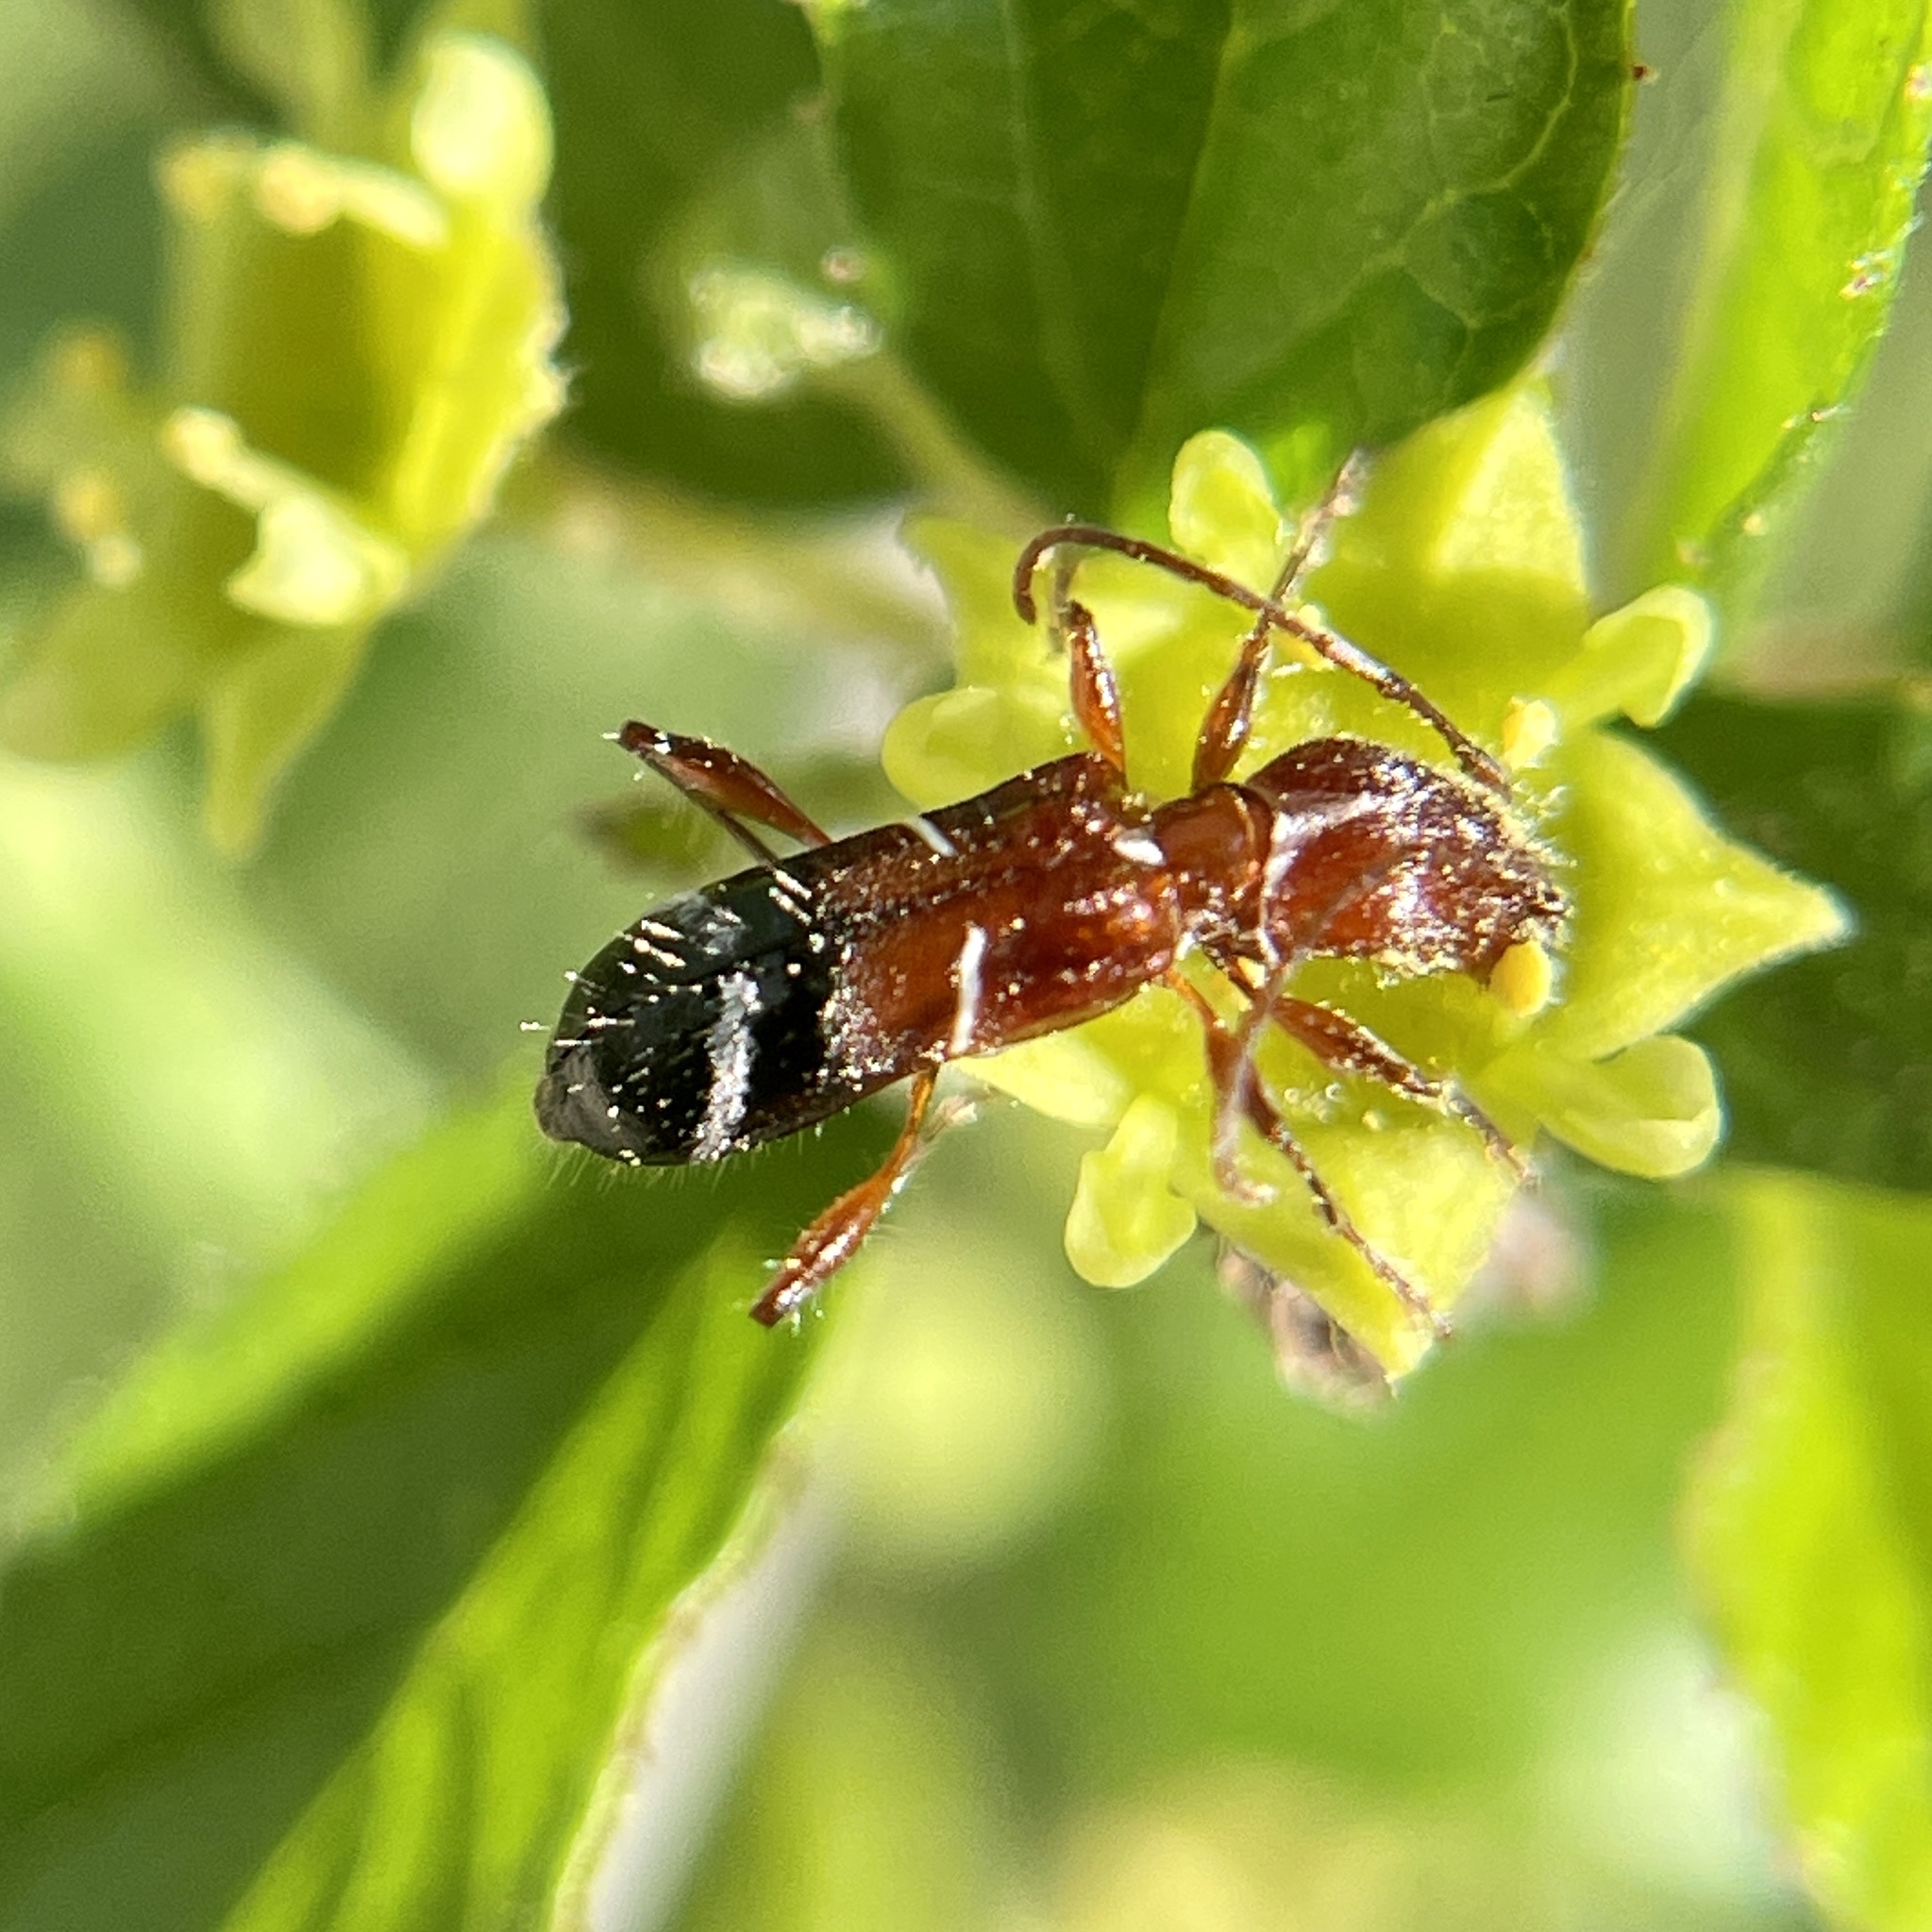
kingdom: Animalia
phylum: Arthropoda
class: Insecta
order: Coleoptera
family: Cerambycidae
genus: Euderces
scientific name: Euderces pini
